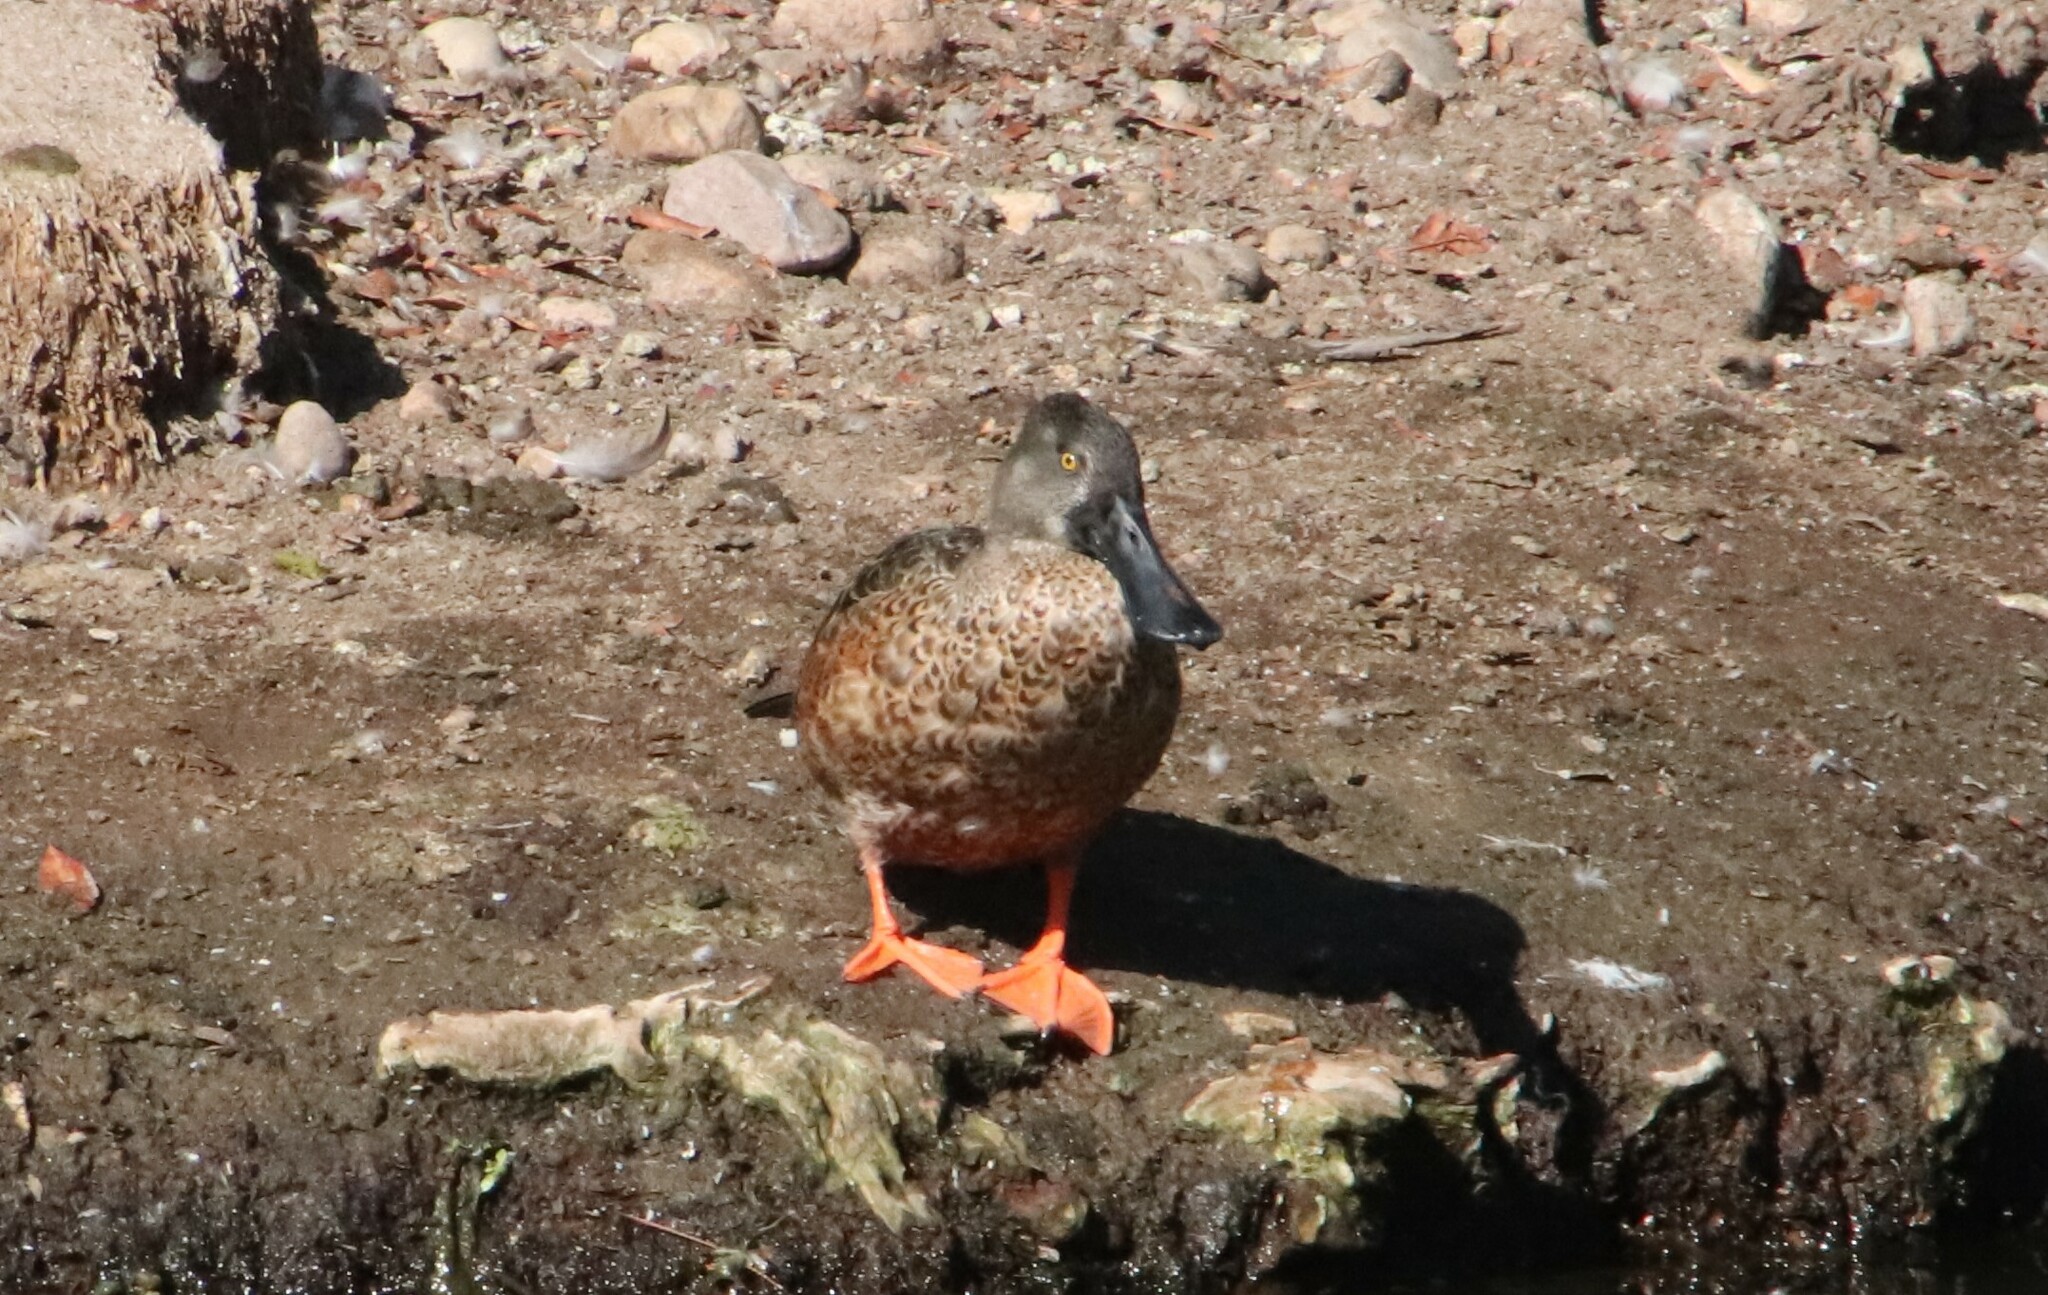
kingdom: Animalia
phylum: Chordata
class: Aves
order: Anseriformes
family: Anatidae
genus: Spatula
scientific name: Spatula clypeata
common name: Northern shoveler
